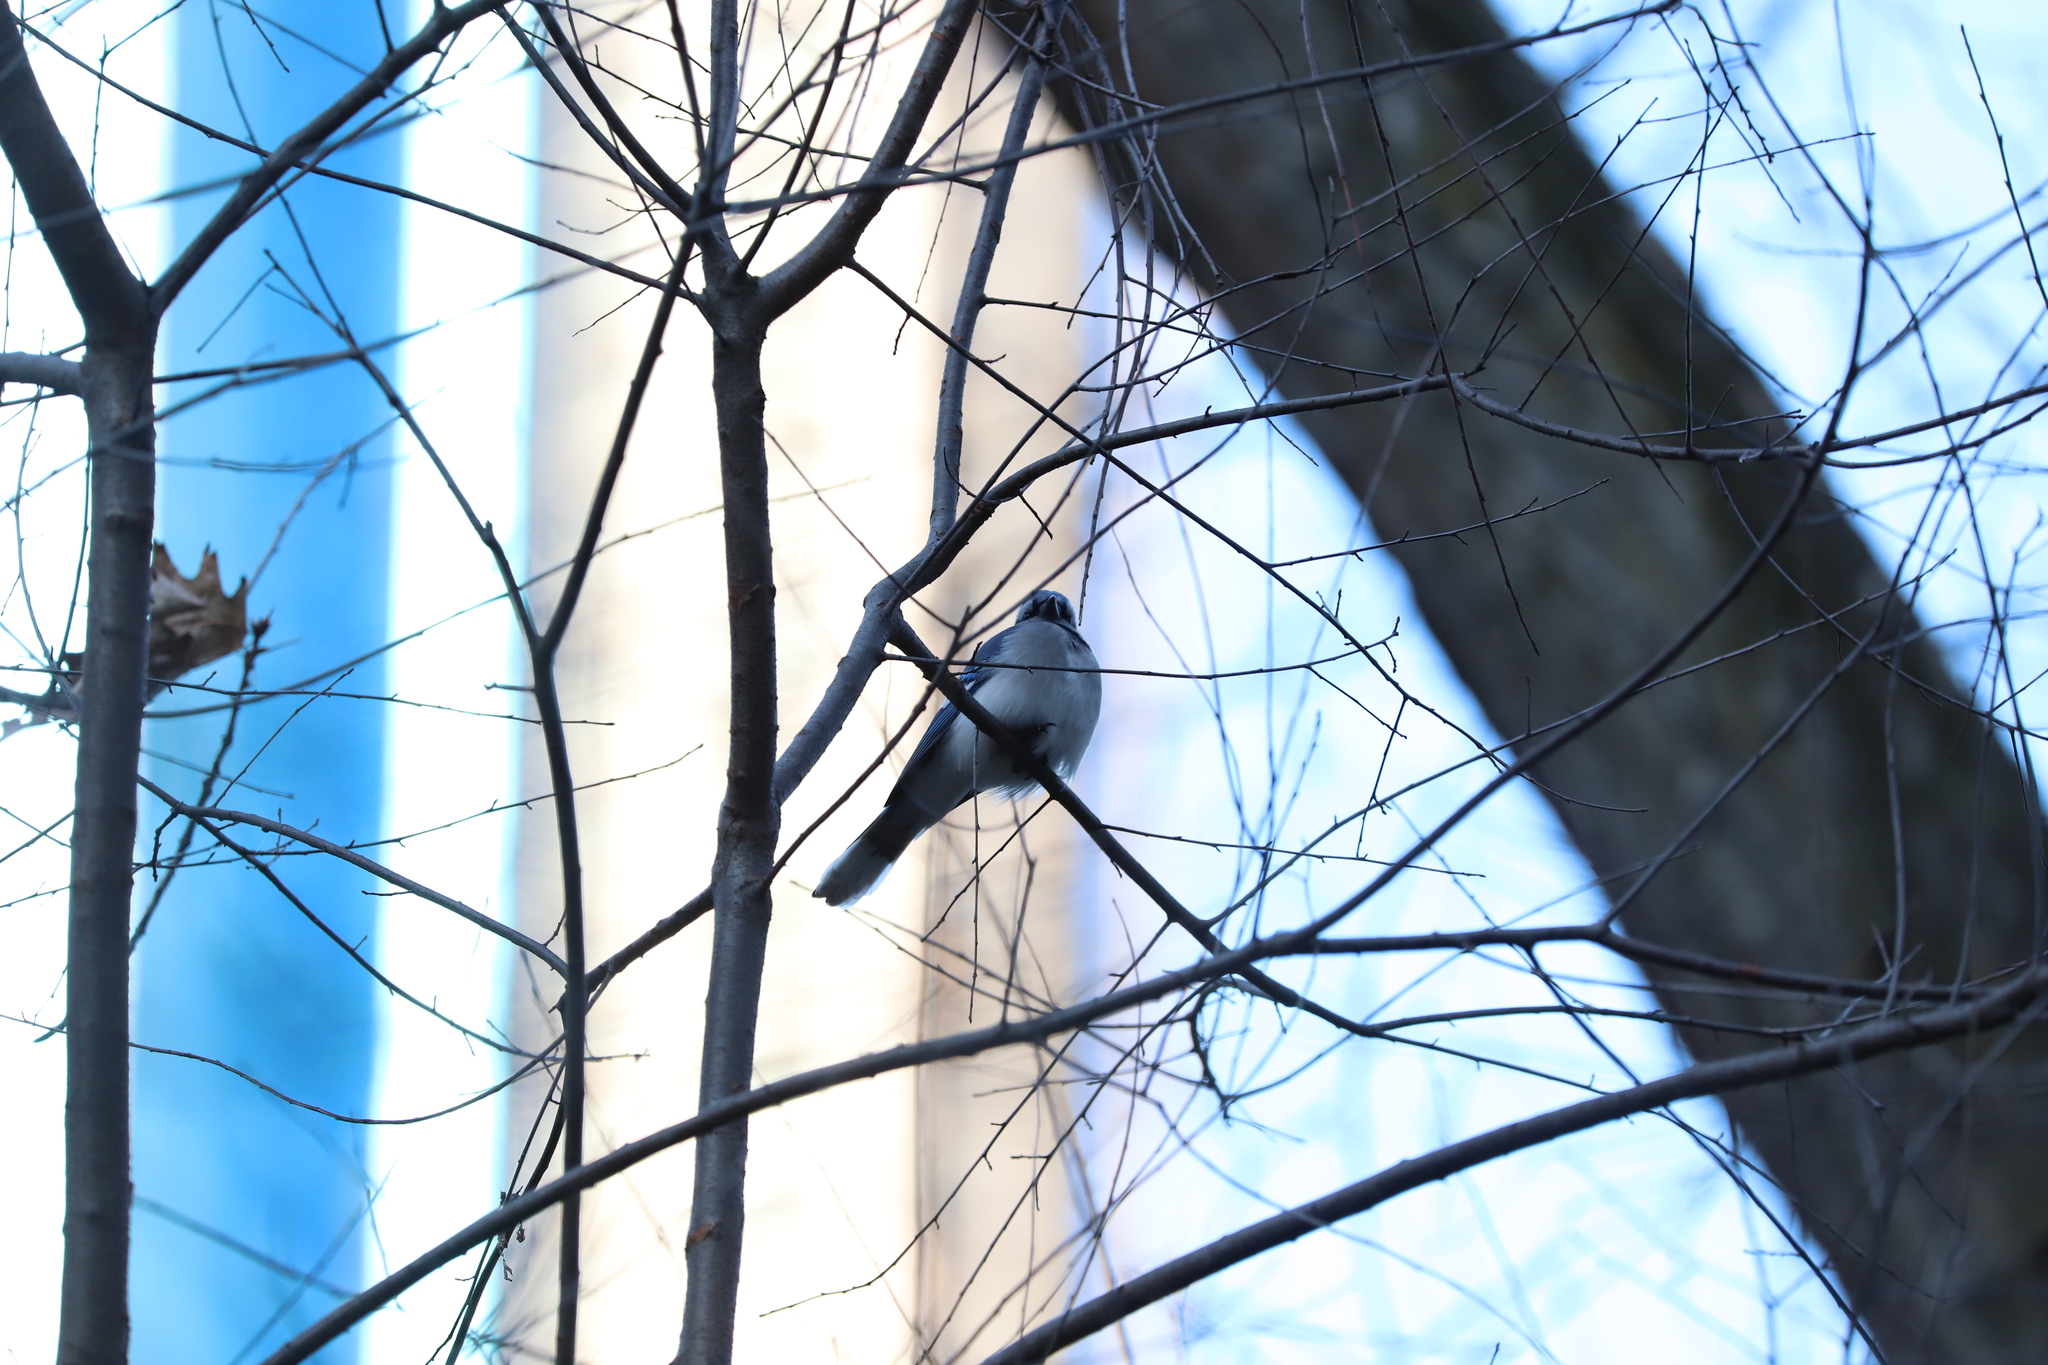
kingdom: Animalia
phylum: Chordata
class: Aves
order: Passeriformes
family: Corvidae
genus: Cyanocitta
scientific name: Cyanocitta cristata
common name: Blue jay
